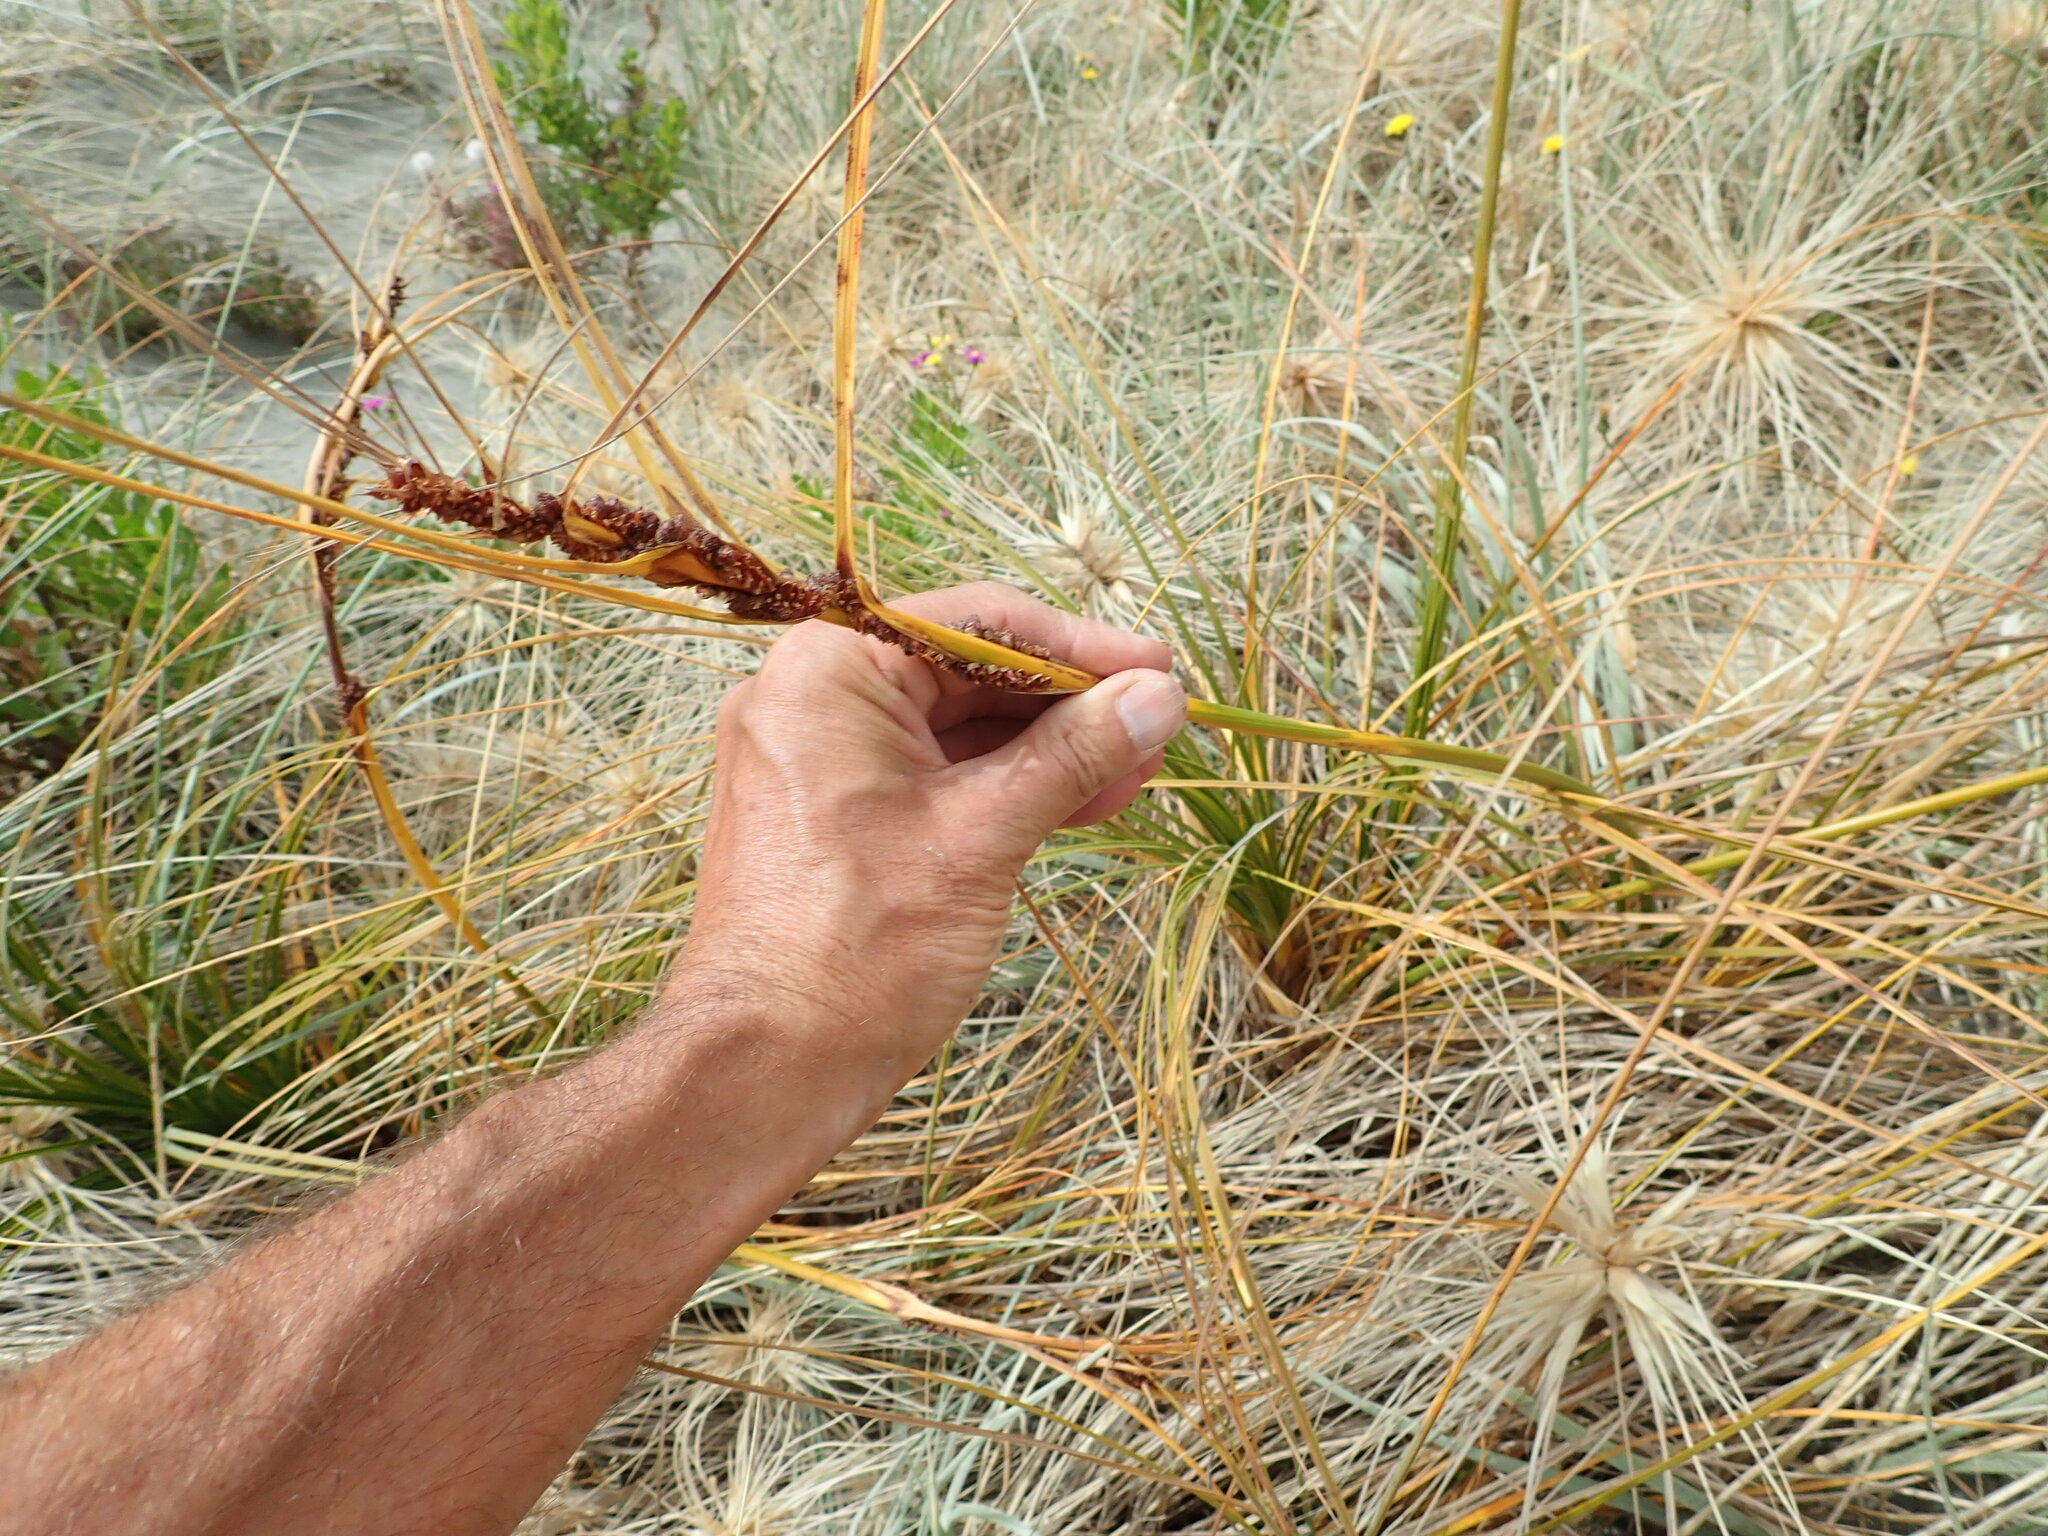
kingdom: Plantae
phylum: Tracheophyta
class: Liliopsida
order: Poales
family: Cyperaceae
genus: Ficinia
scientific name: Ficinia spiralis
